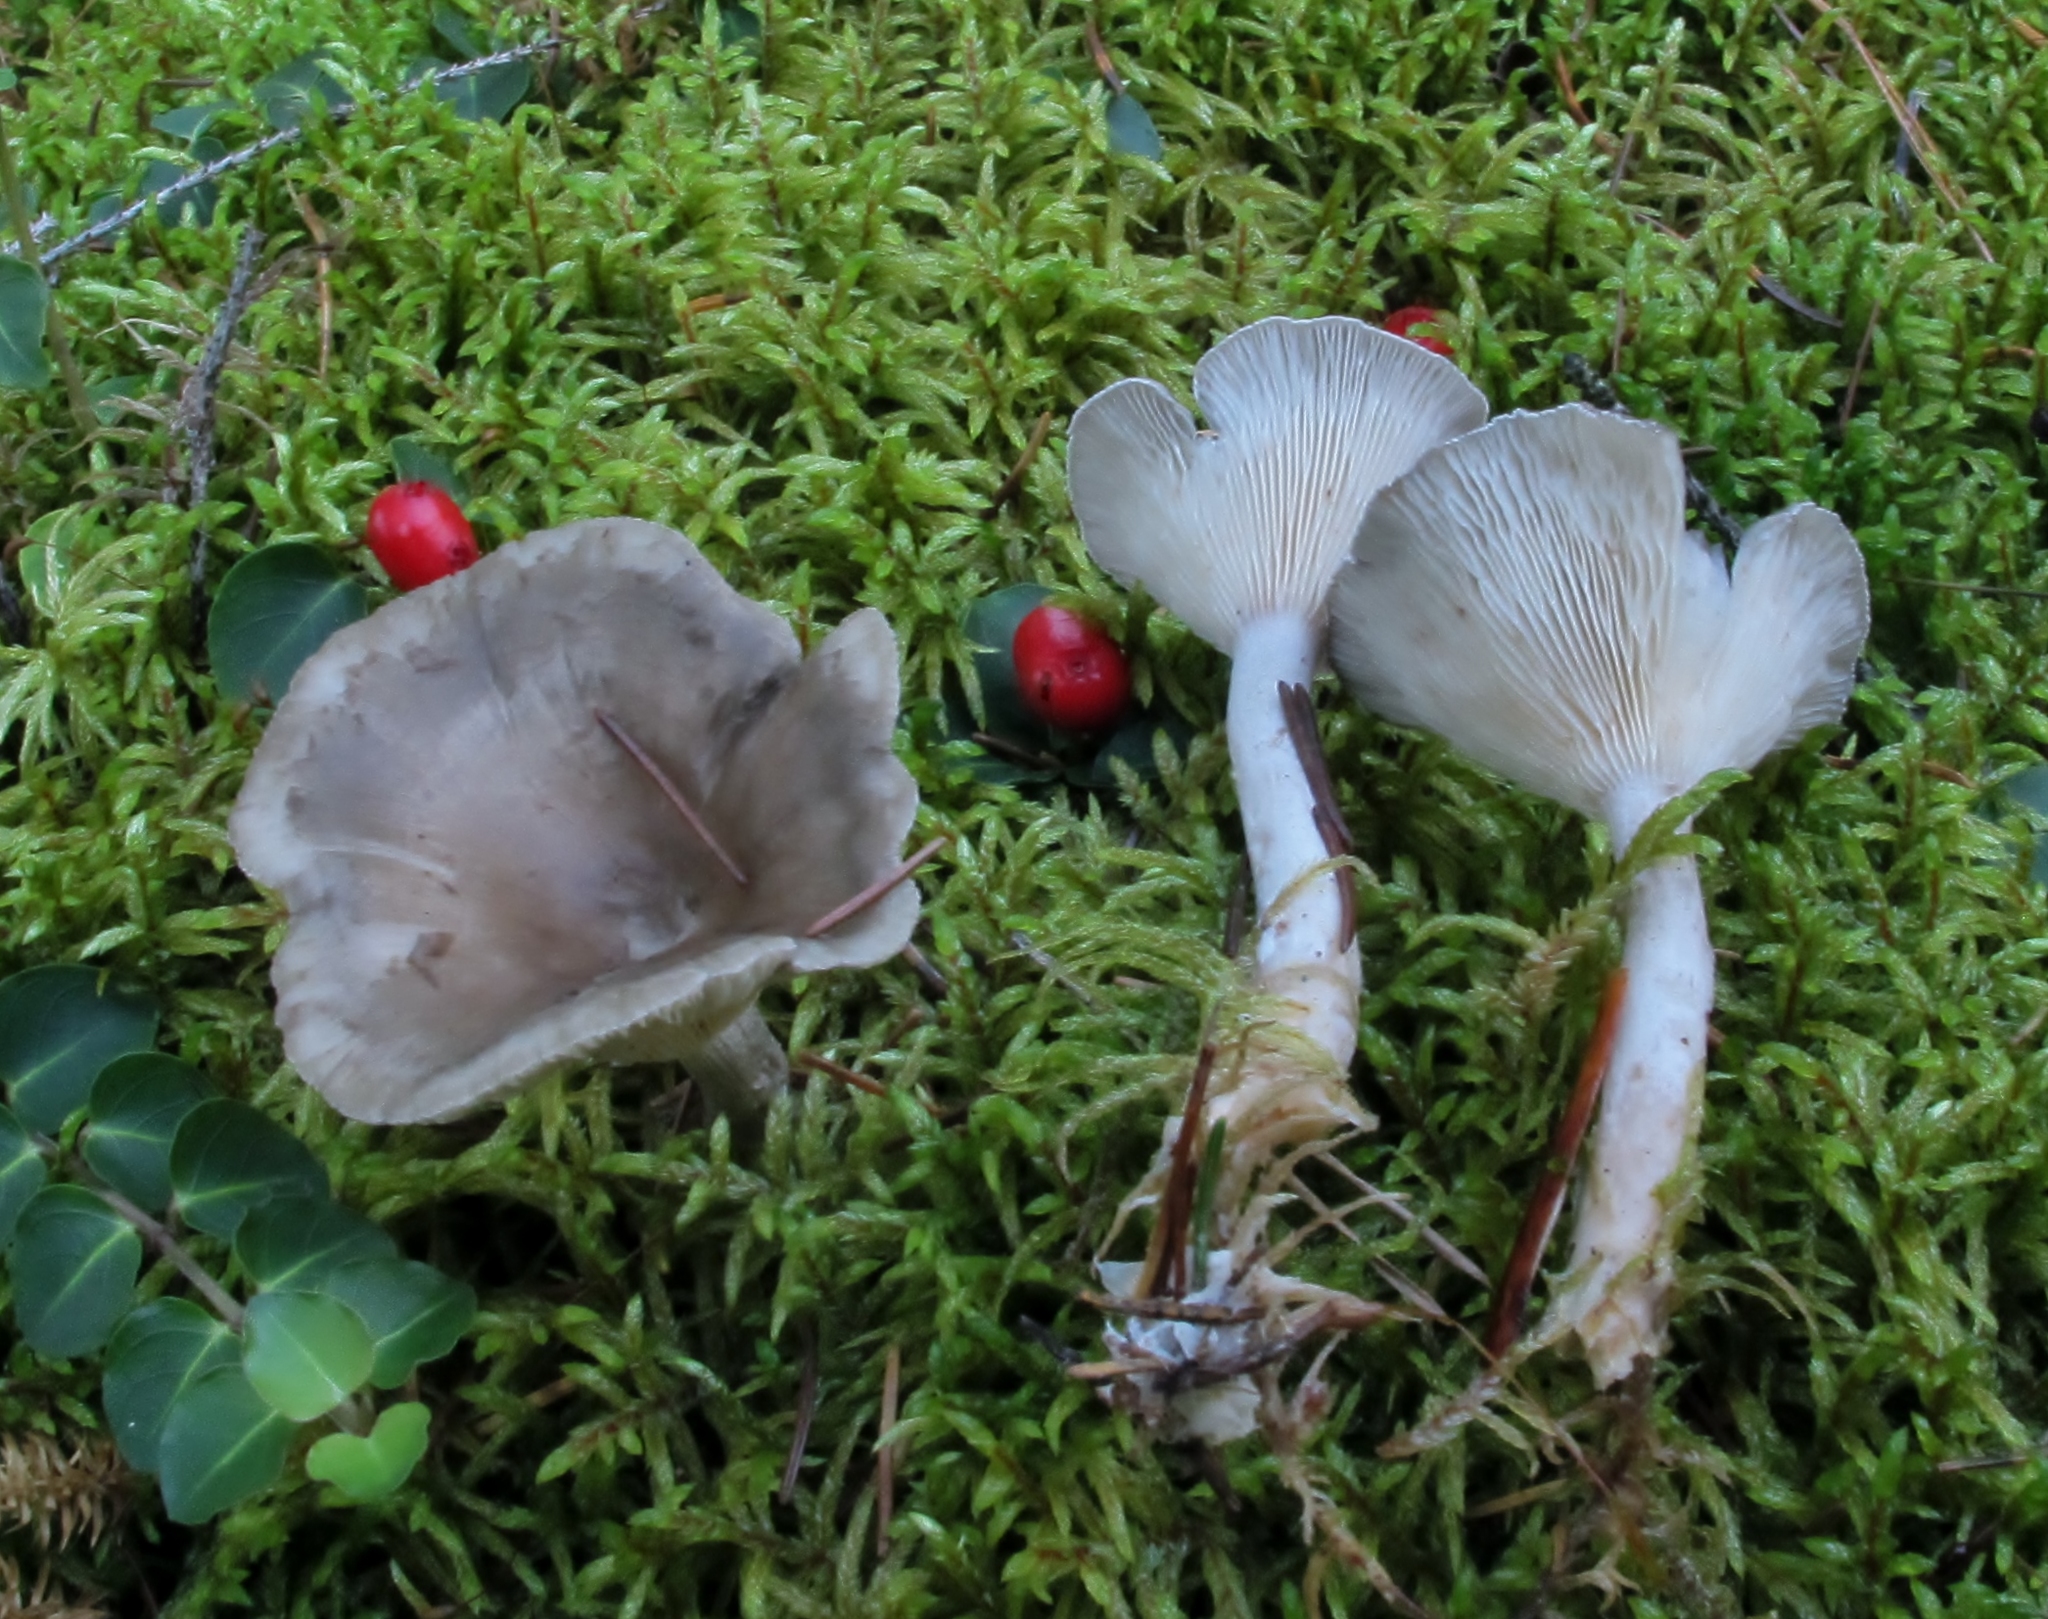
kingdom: Fungi
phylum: Basidiomycota
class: Agaricomycetes
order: Agaricales
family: Hygrophoraceae
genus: Cantharellula
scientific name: Cantharellula umbonata
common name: The humpback
